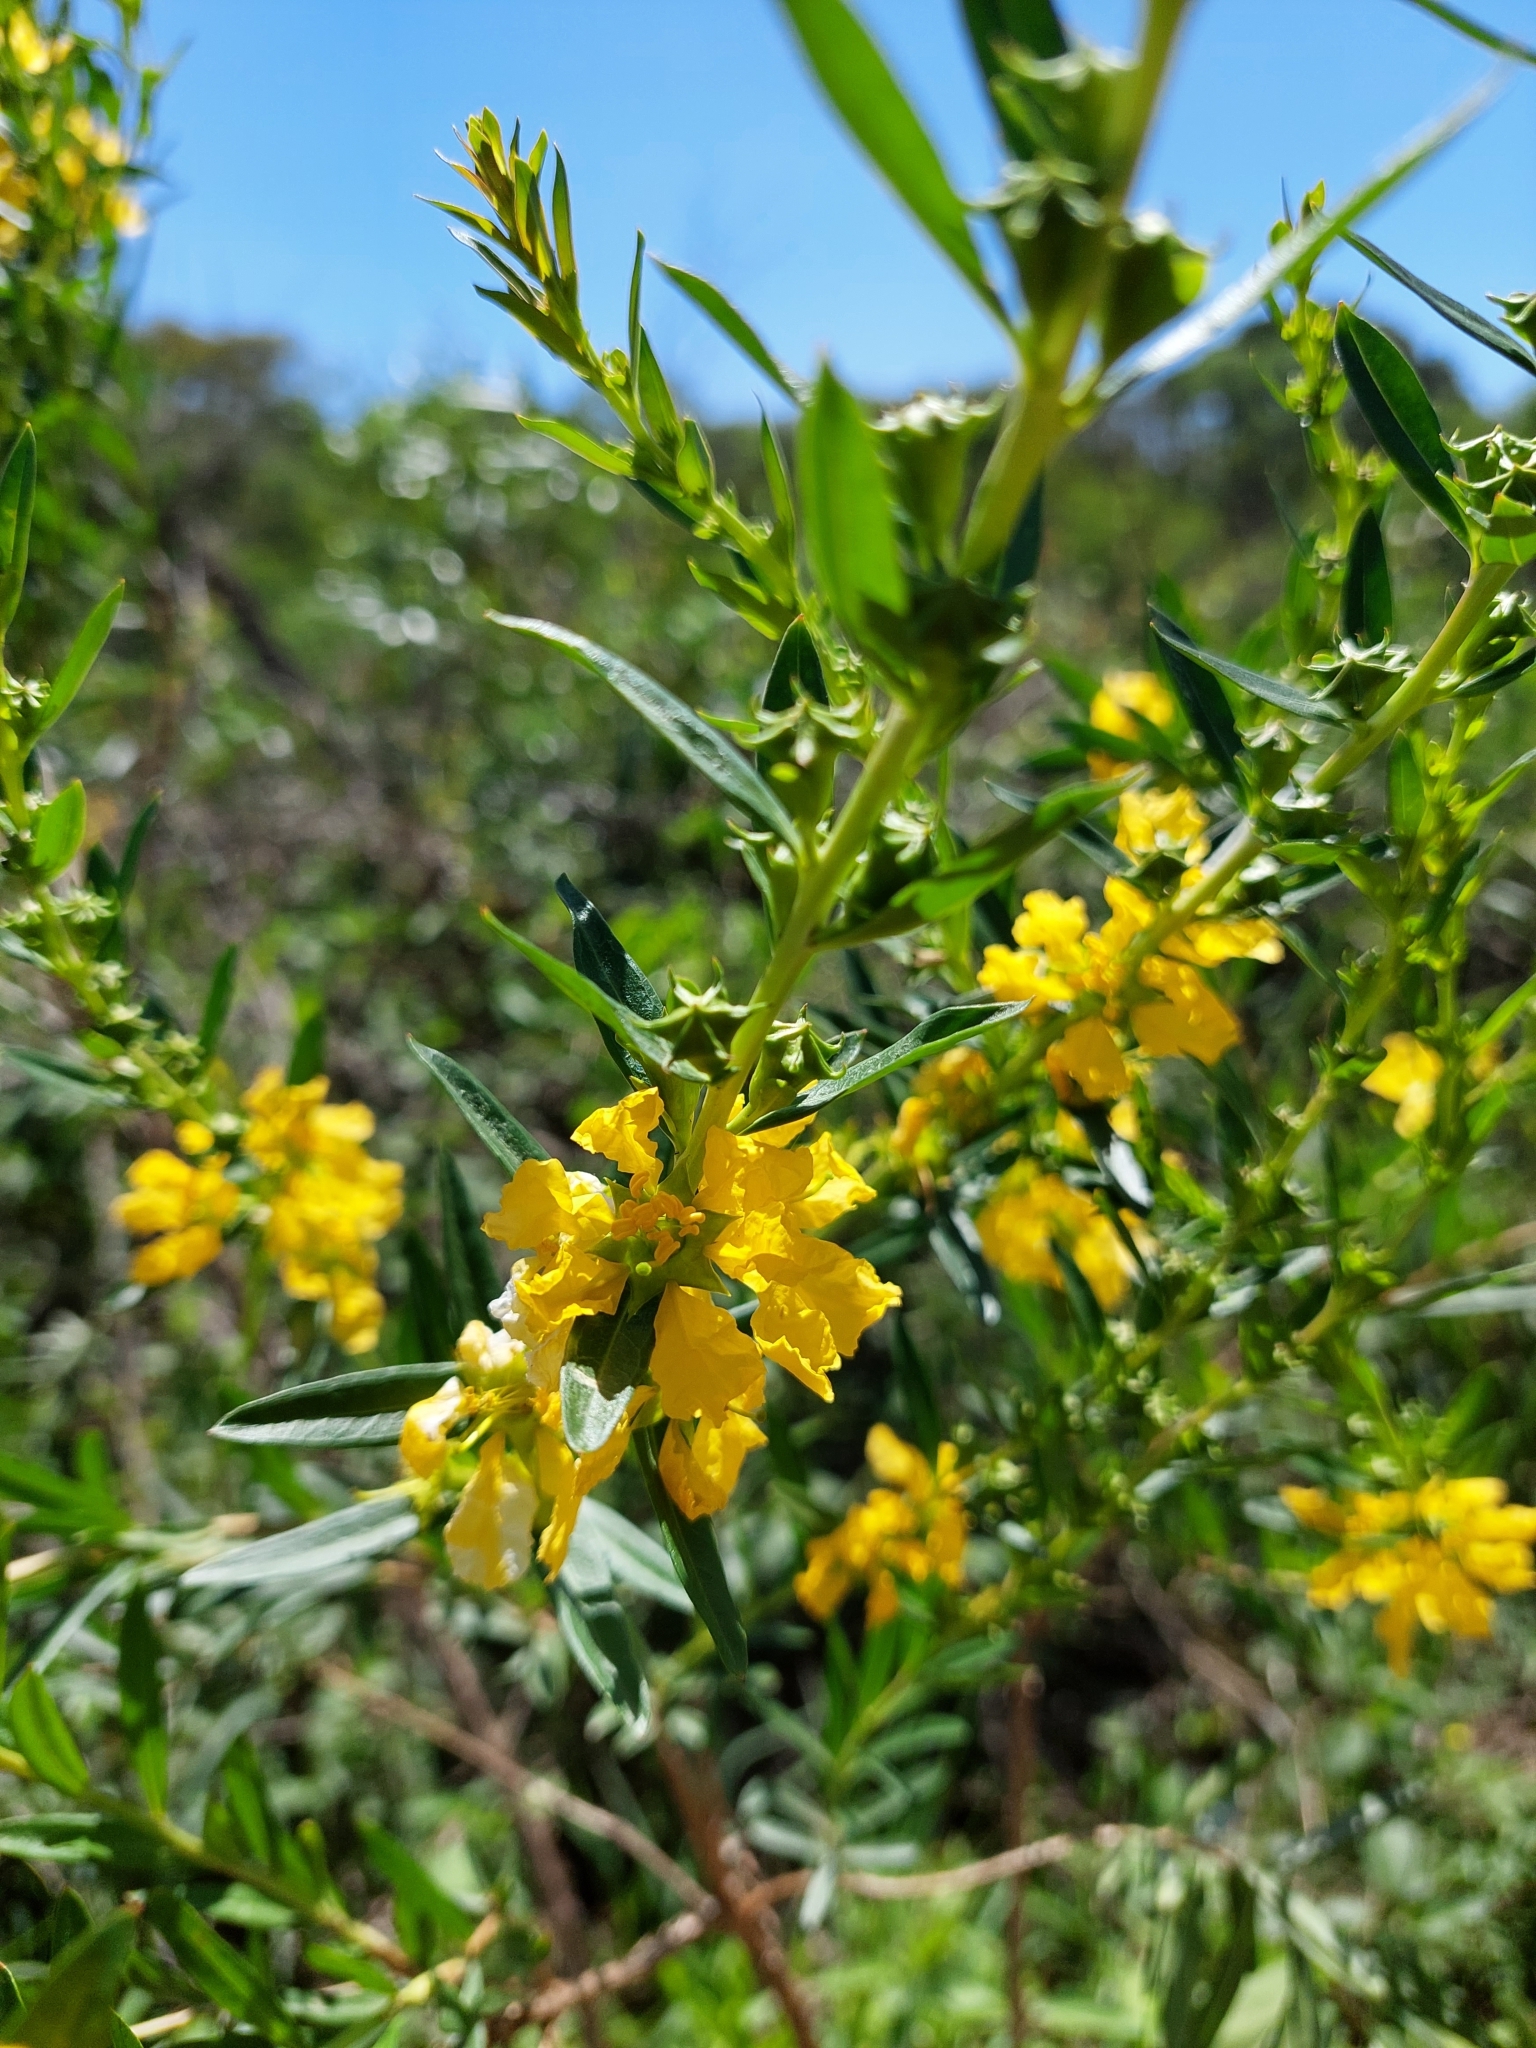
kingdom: Plantae
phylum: Tracheophyta
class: Magnoliopsida
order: Myrtales
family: Lythraceae
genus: Heimia
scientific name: Heimia salicifolia
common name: Willow-leaf heimia
